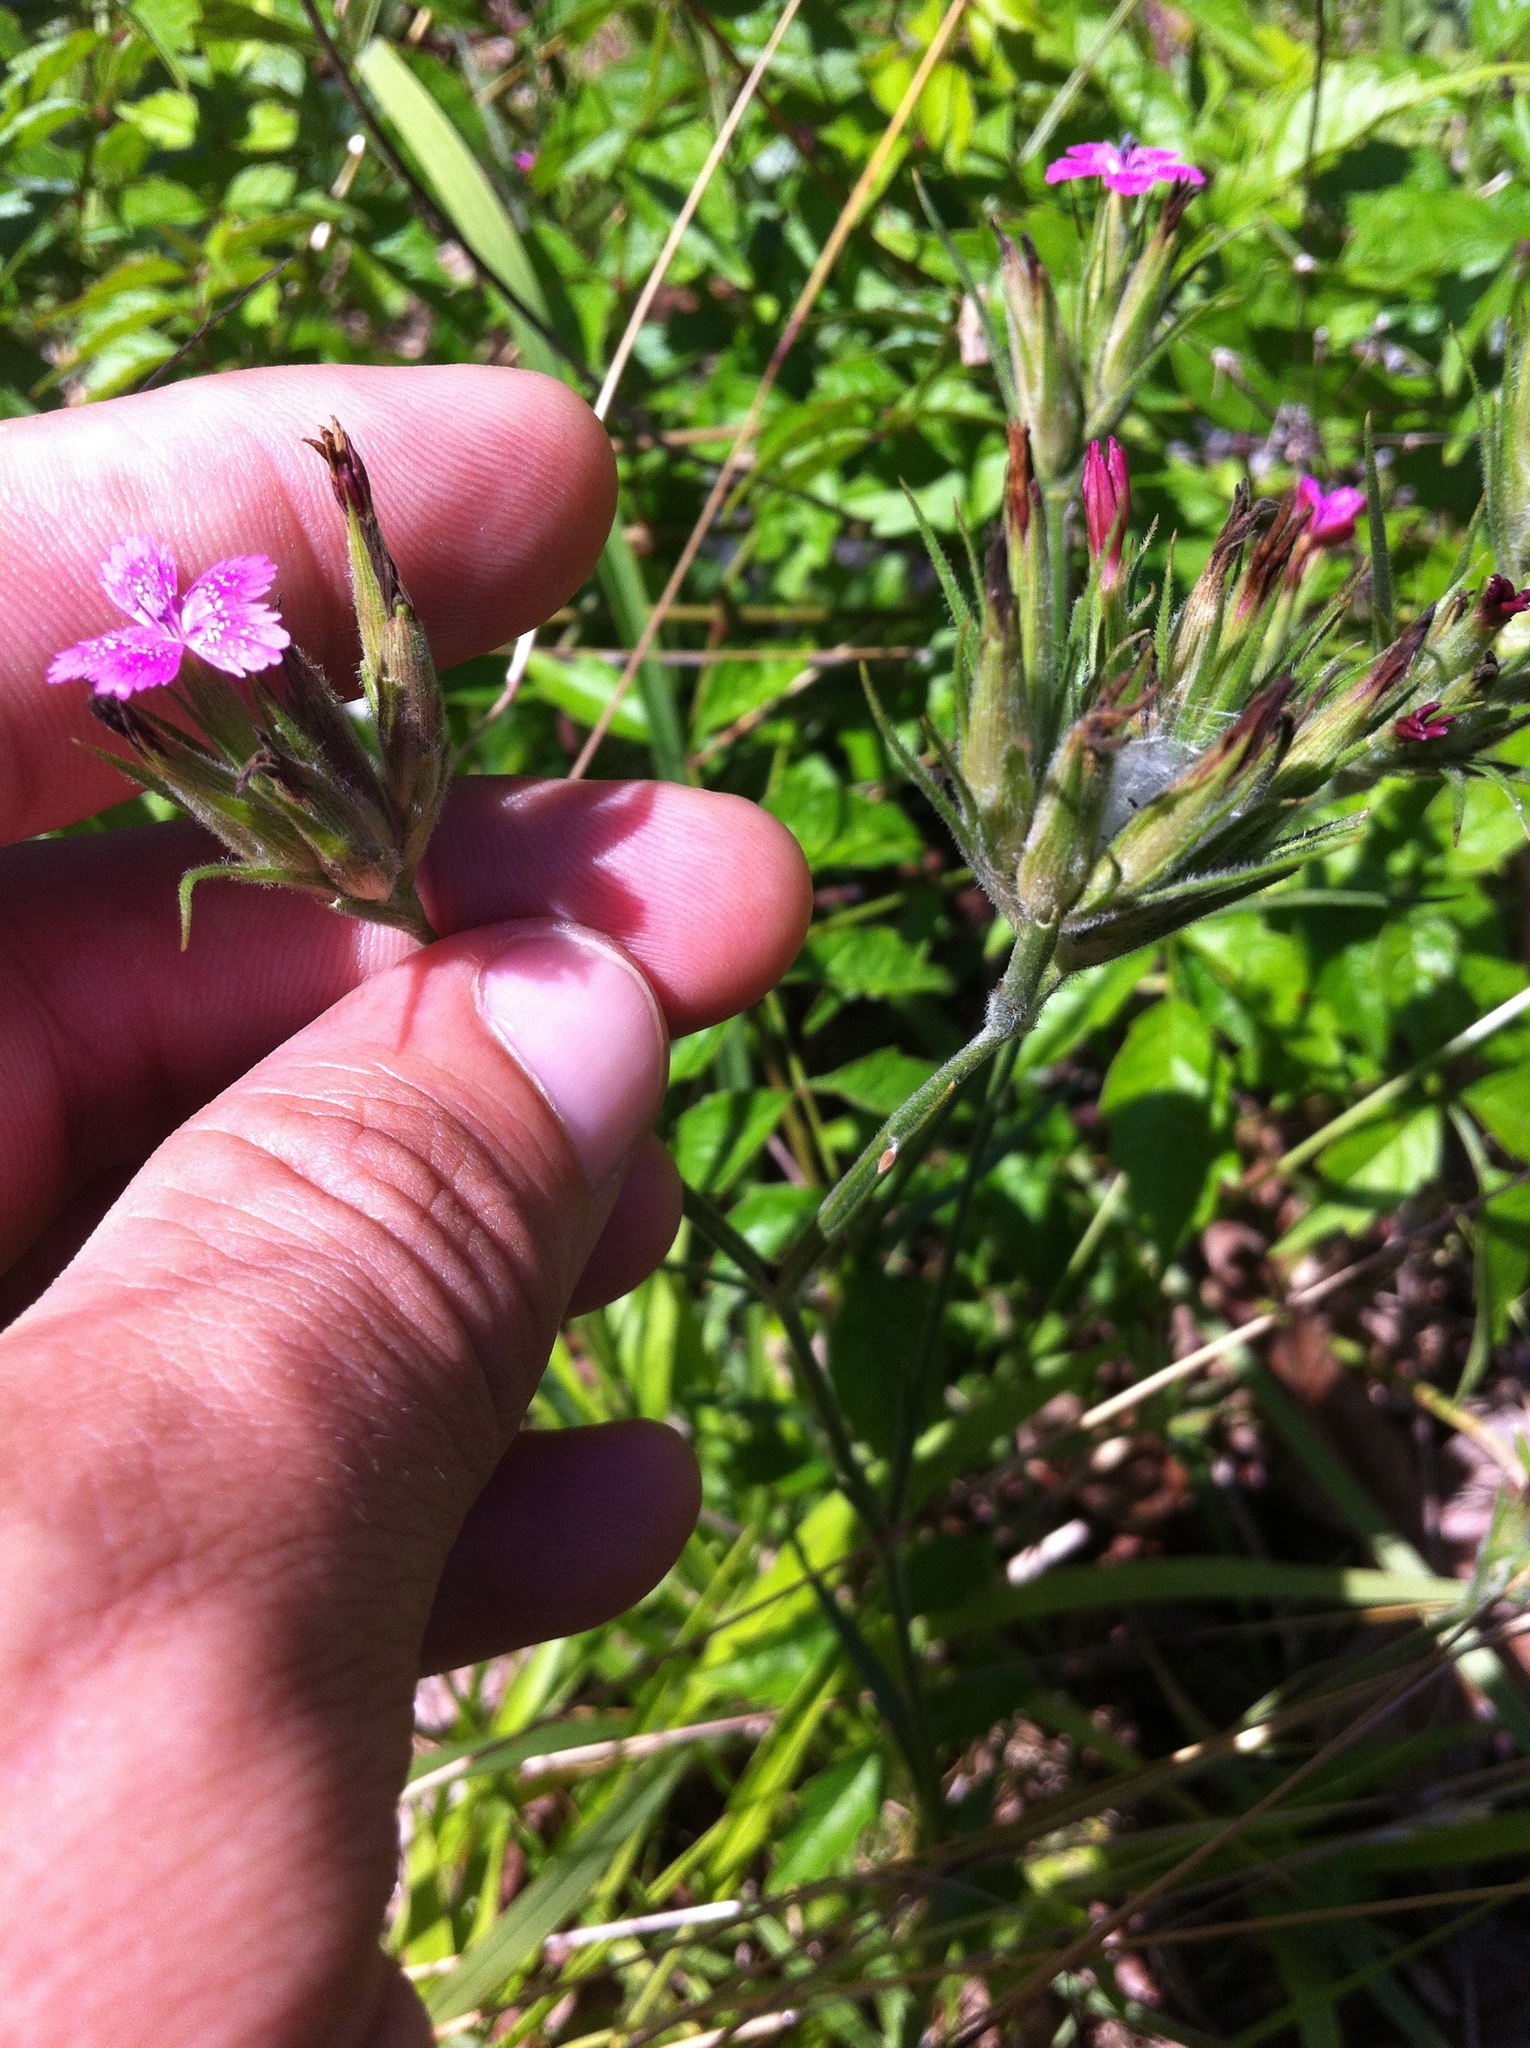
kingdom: Plantae
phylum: Tracheophyta
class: Magnoliopsida
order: Caryophyllales
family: Caryophyllaceae
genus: Dianthus
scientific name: Dianthus armeria
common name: Deptford pink
